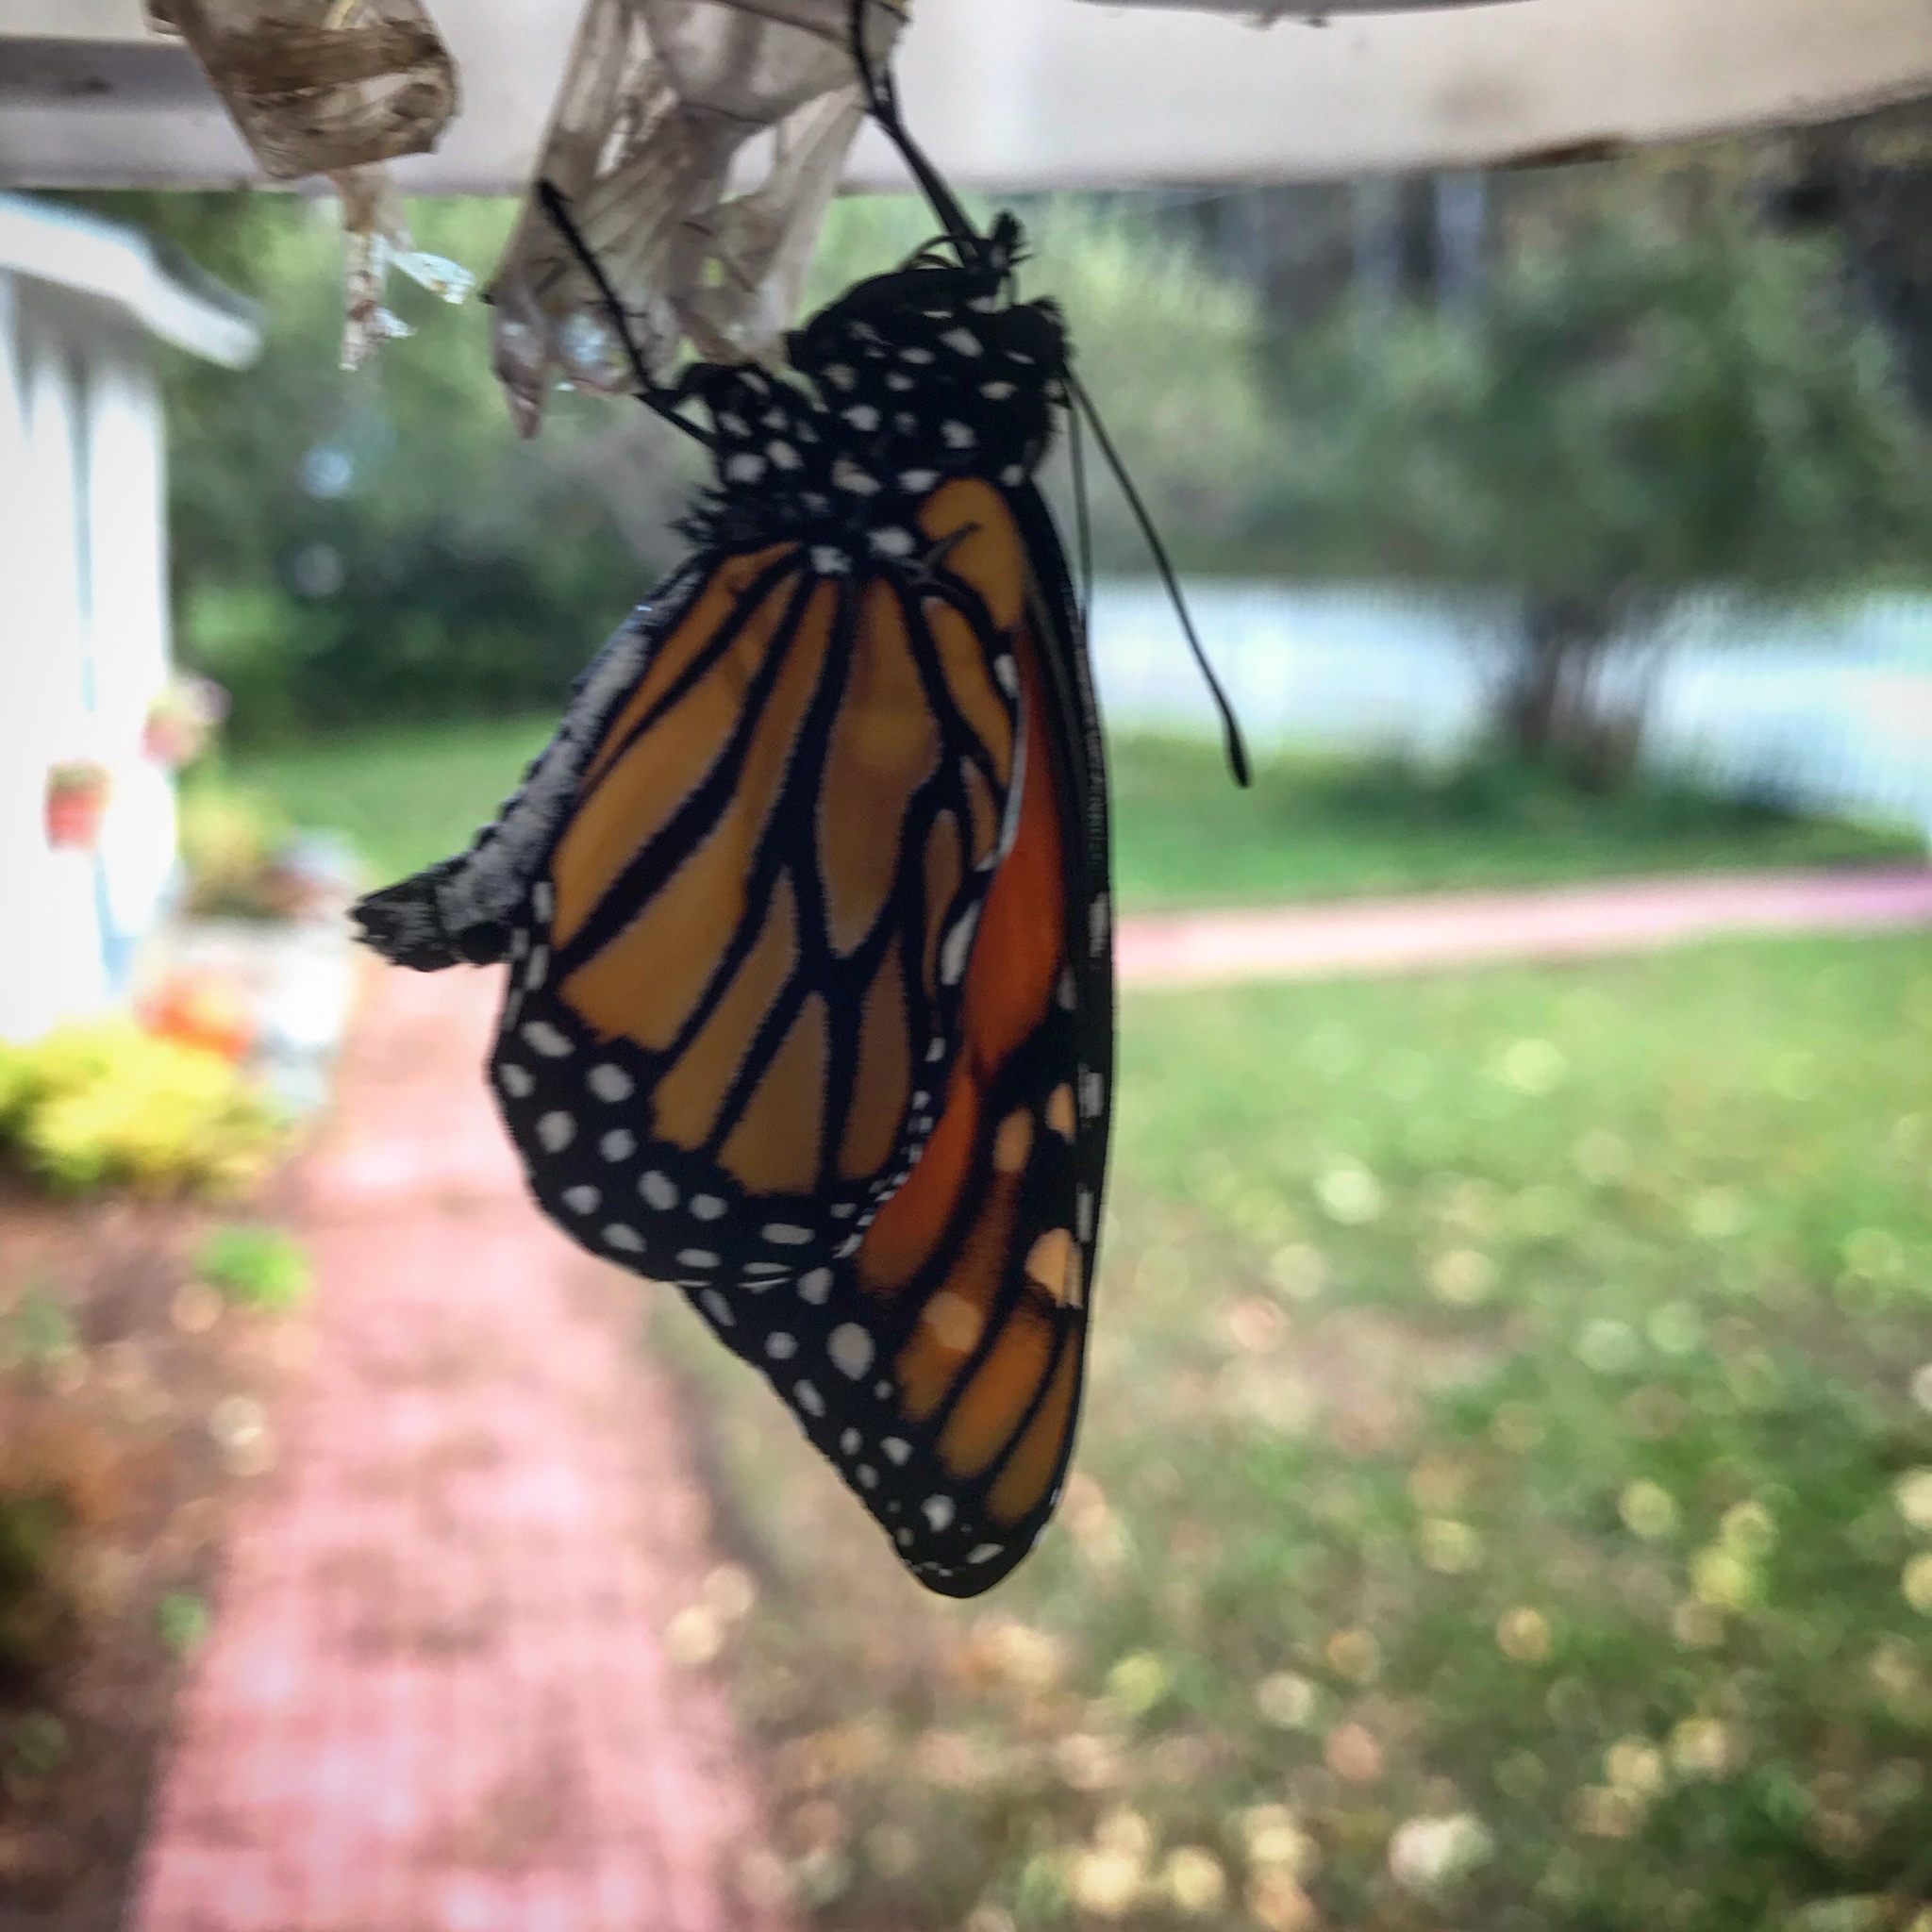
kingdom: Animalia
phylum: Arthropoda
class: Insecta
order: Lepidoptera
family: Nymphalidae
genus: Danaus
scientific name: Danaus plexippus
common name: Monarch
